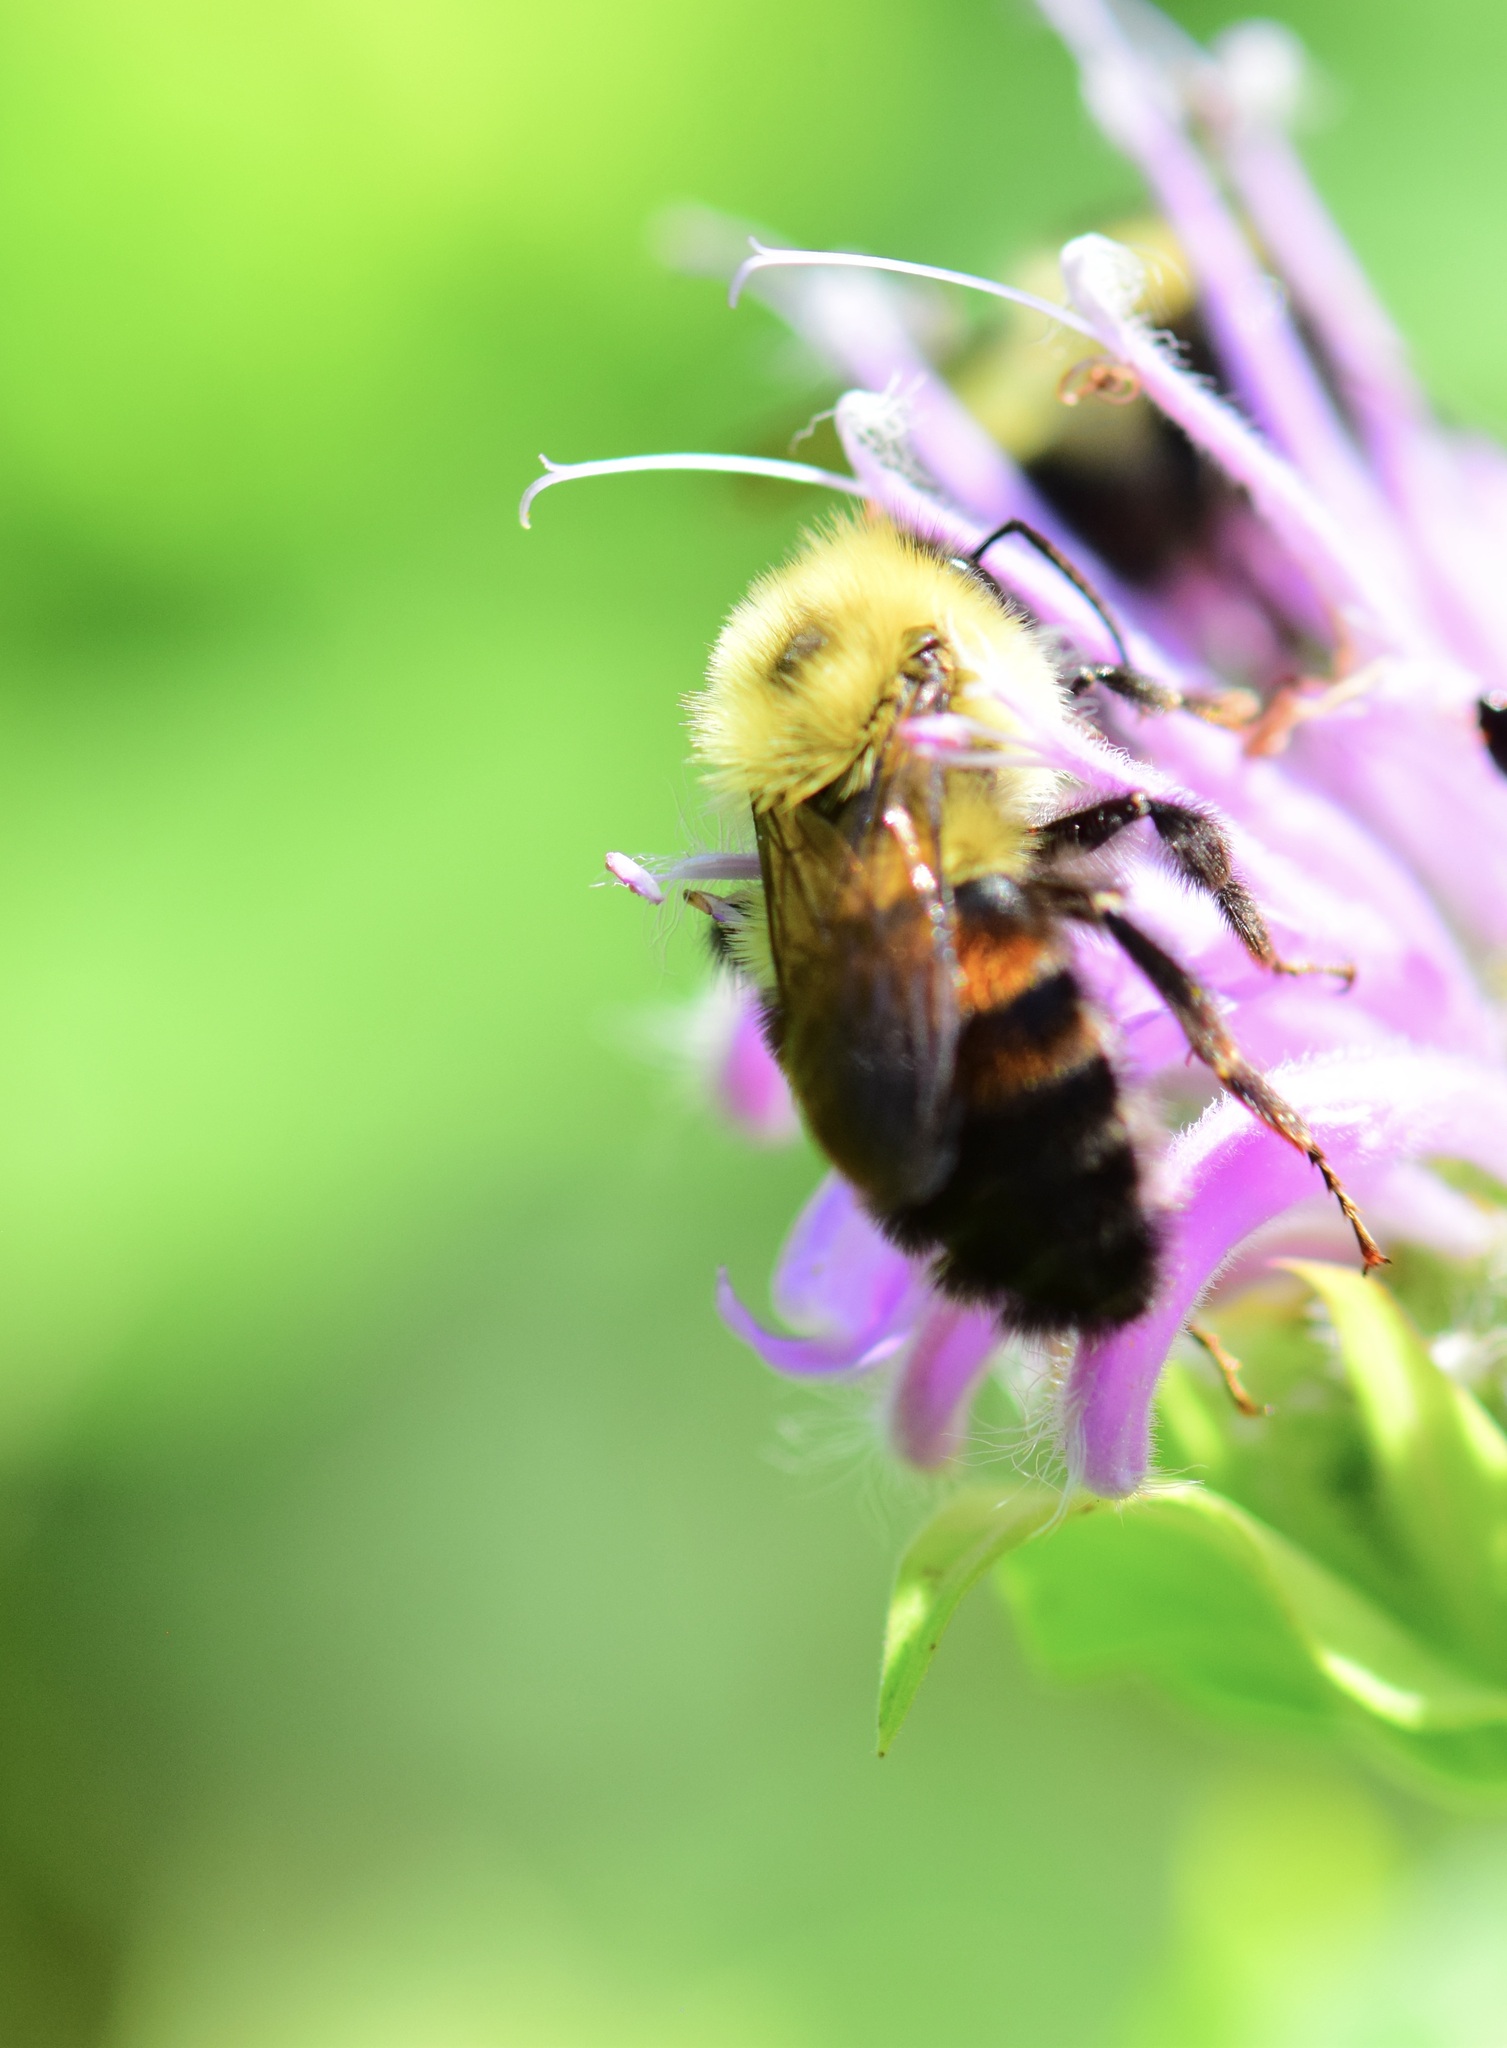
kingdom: Animalia
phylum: Arthropoda
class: Insecta
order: Hymenoptera
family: Apidae
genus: Bombus
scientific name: Bombus bimaculatus
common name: Two-spotted bumble bee
